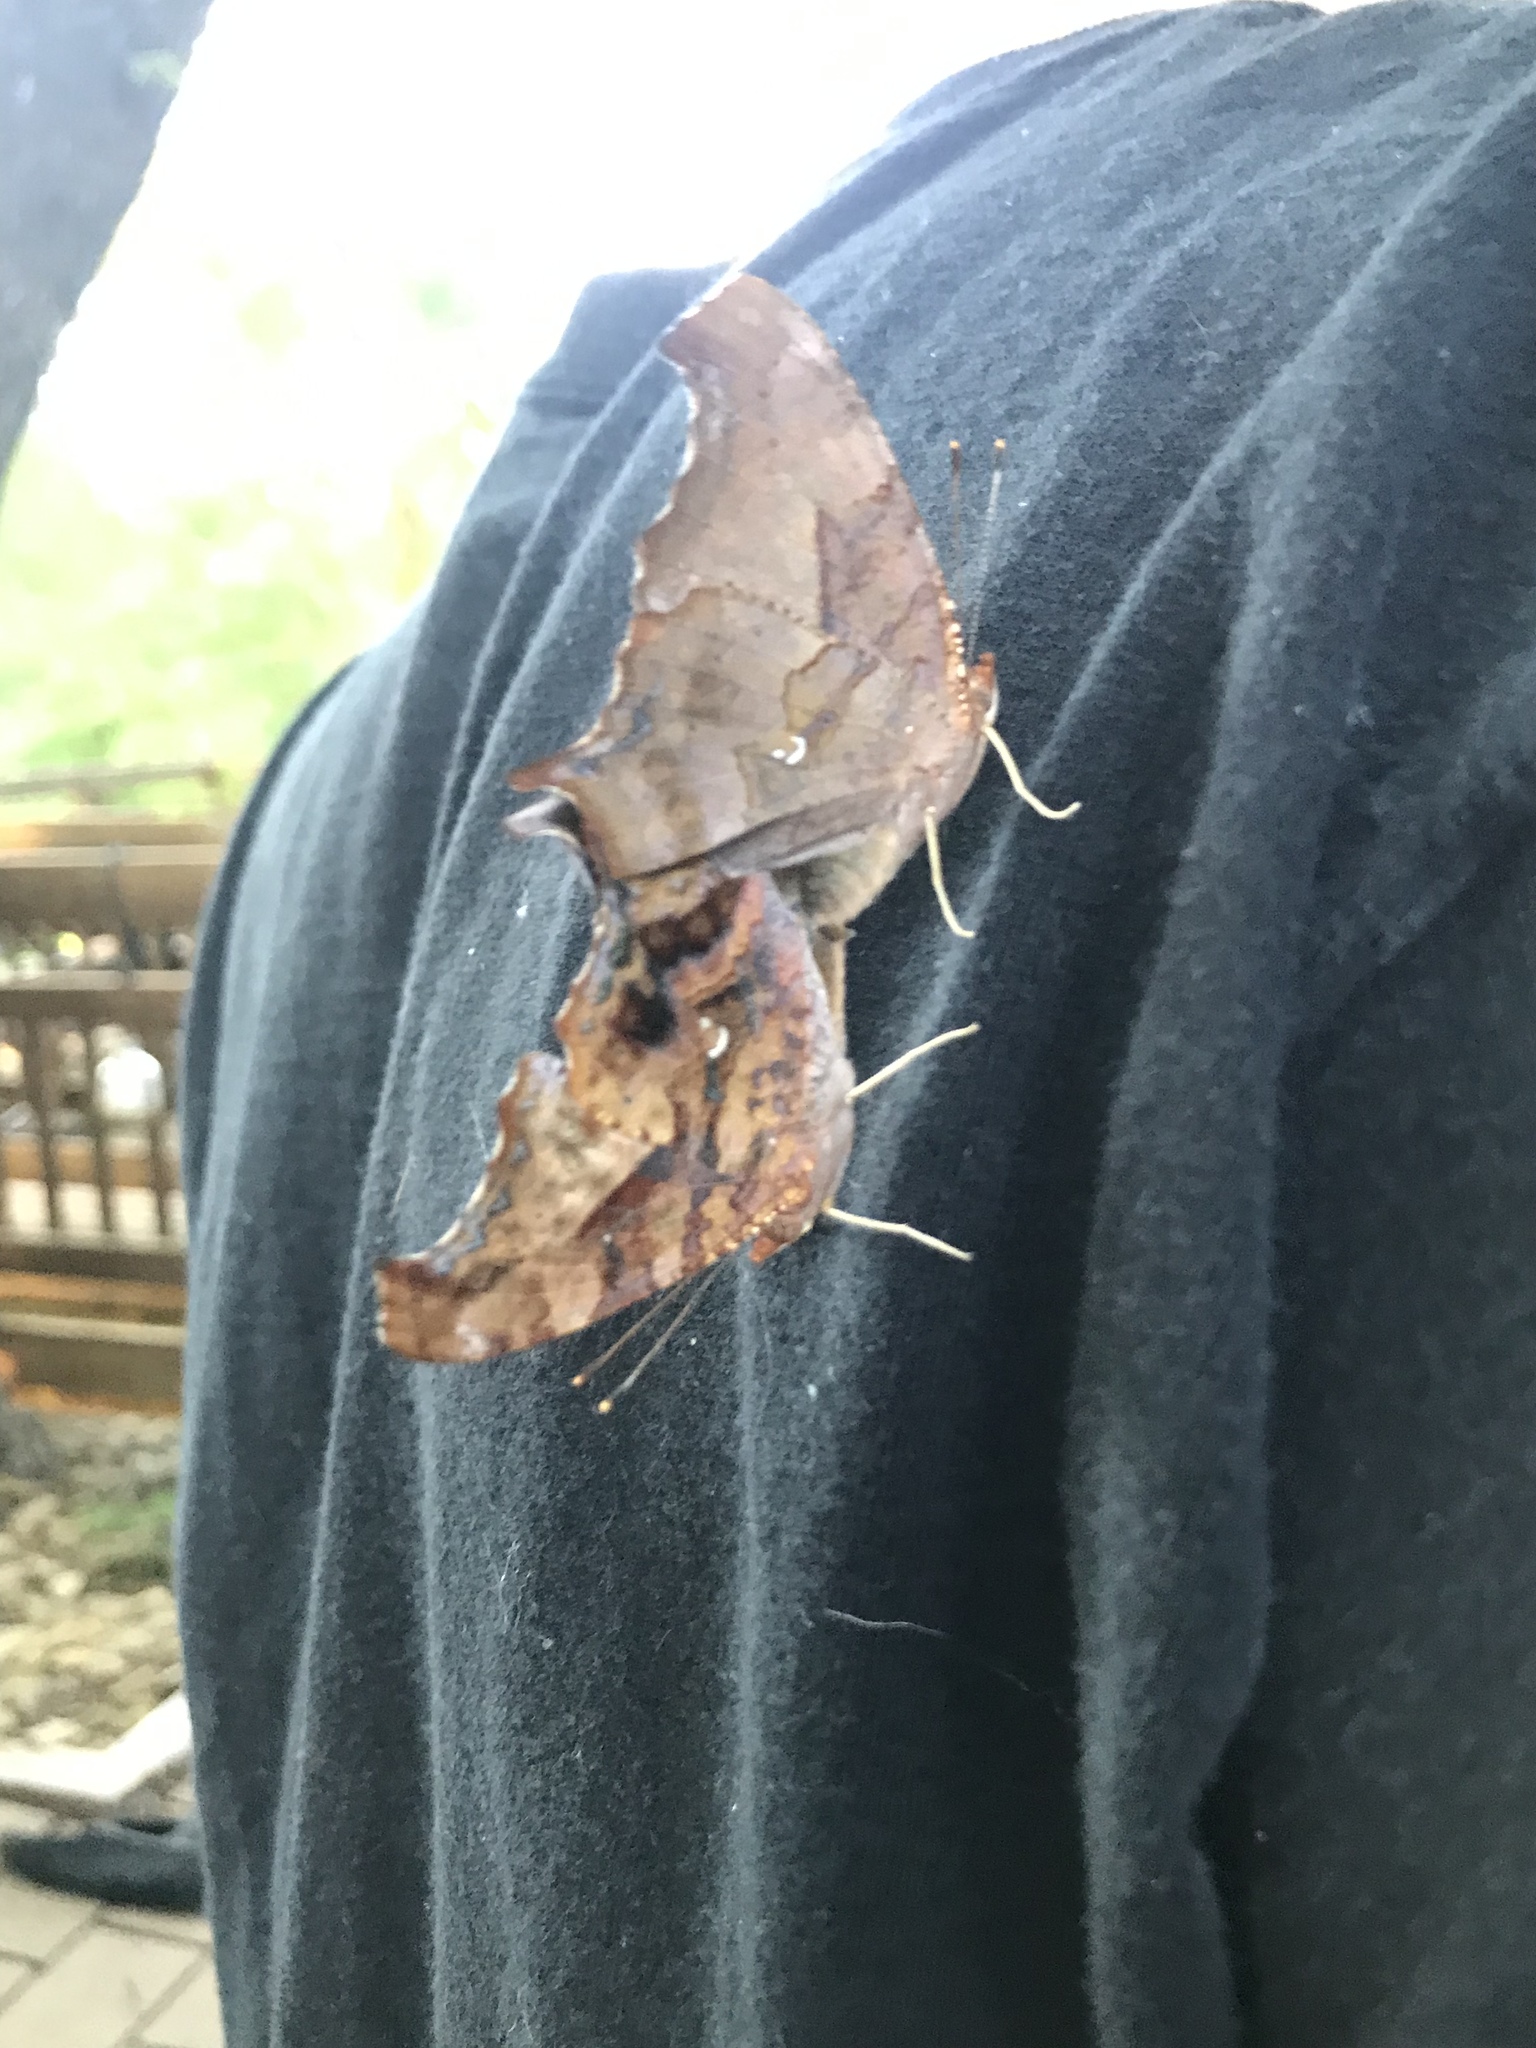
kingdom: Animalia
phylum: Arthropoda
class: Insecta
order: Lepidoptera
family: Nymphalidae
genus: Polygonia
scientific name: Polygonia interrogationis
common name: Question mark
